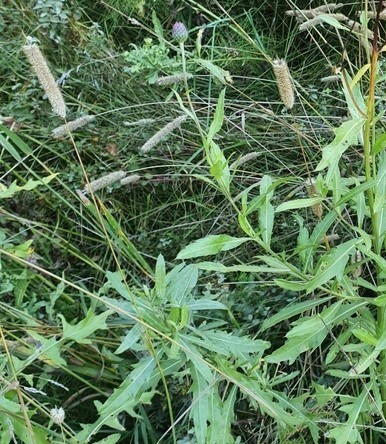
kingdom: Plantae
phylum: Tracheophyta
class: Liliopsida
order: Poales
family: Poaceae
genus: Phleum
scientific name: Phleum pratense
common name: Timothy grass
